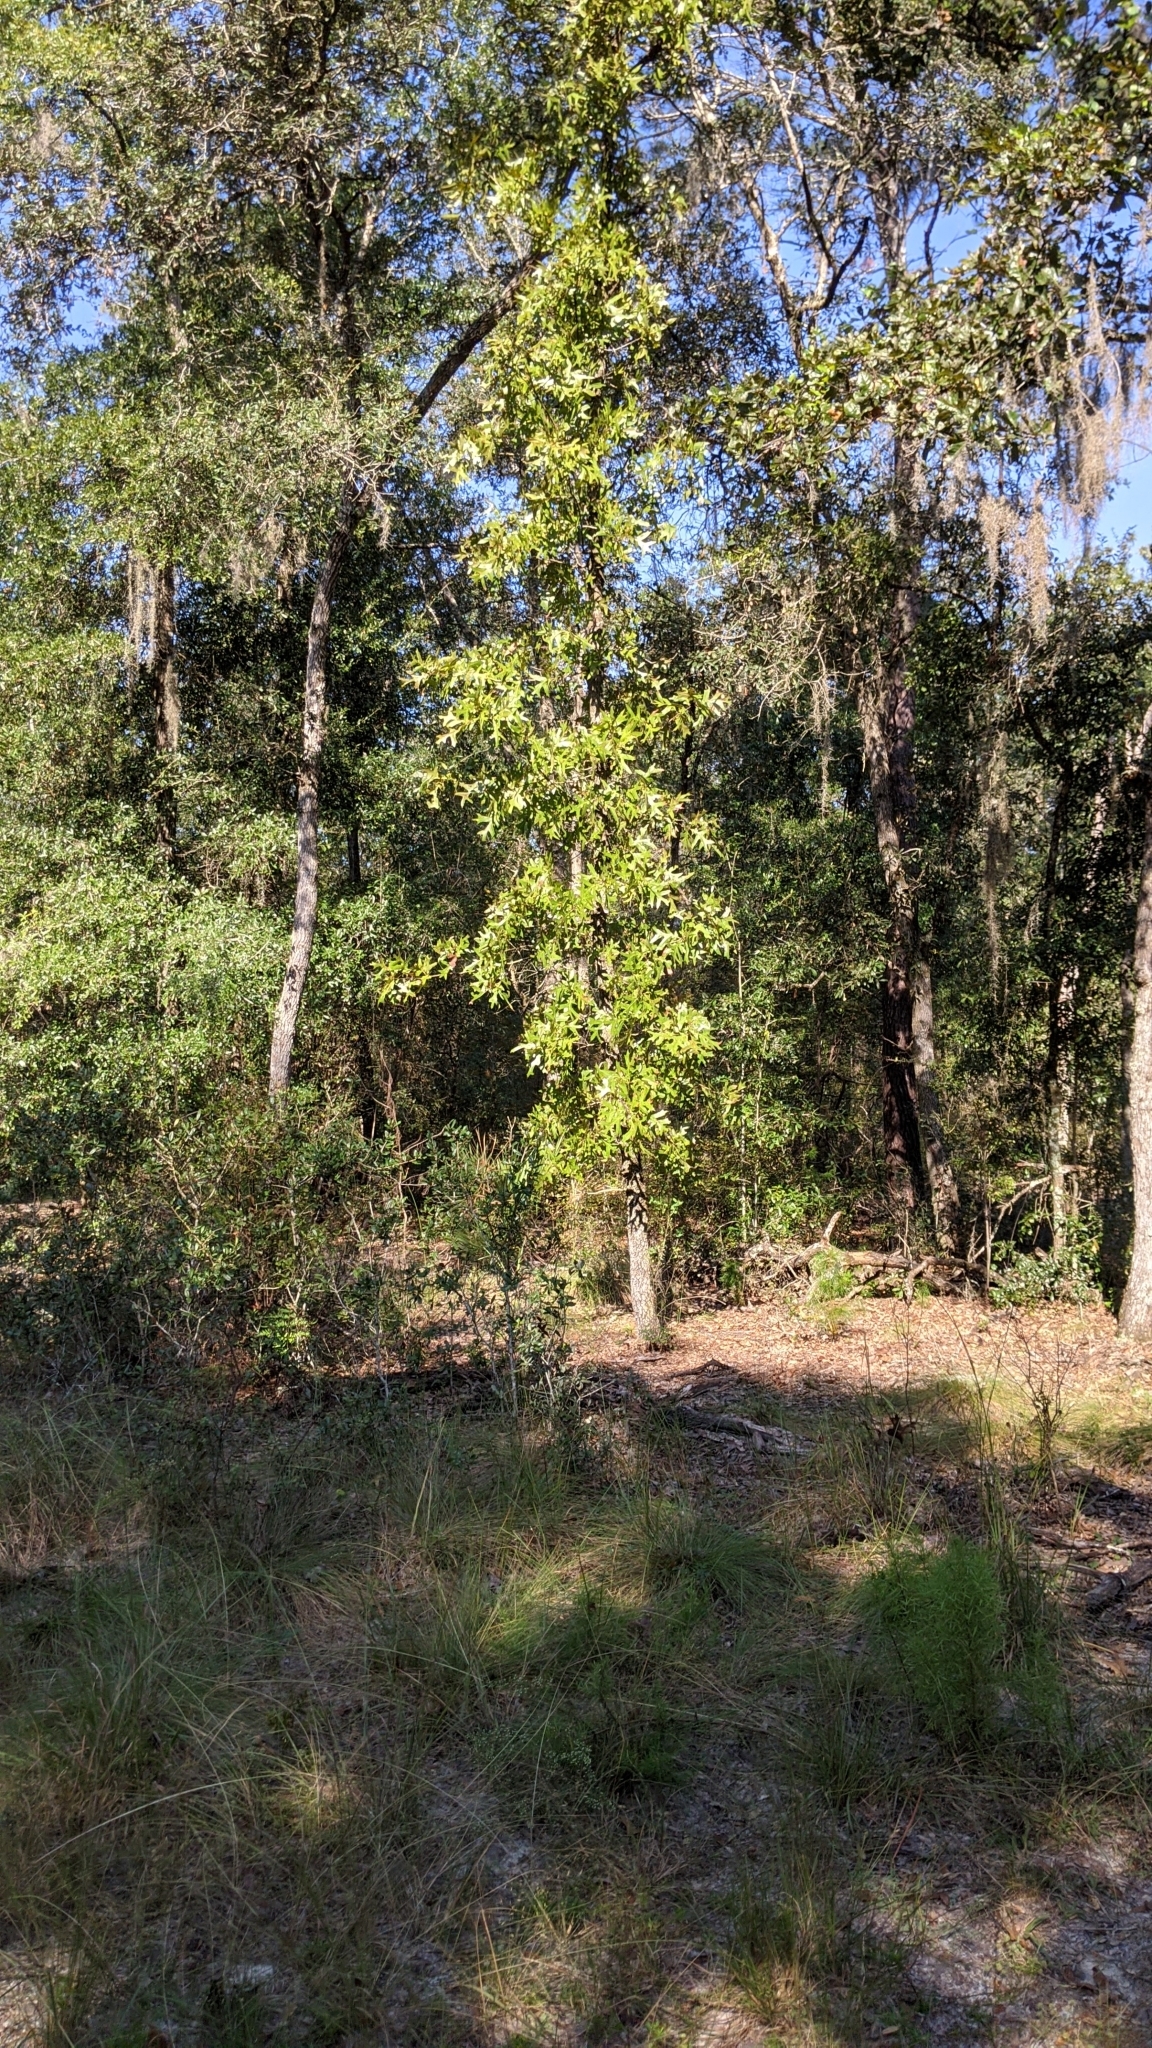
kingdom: Plantae
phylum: Tracheophyta
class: Magnoliopsida
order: Fagales
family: Fagaceae
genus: Quercus
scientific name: Quercus laevis
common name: Turkey oak
